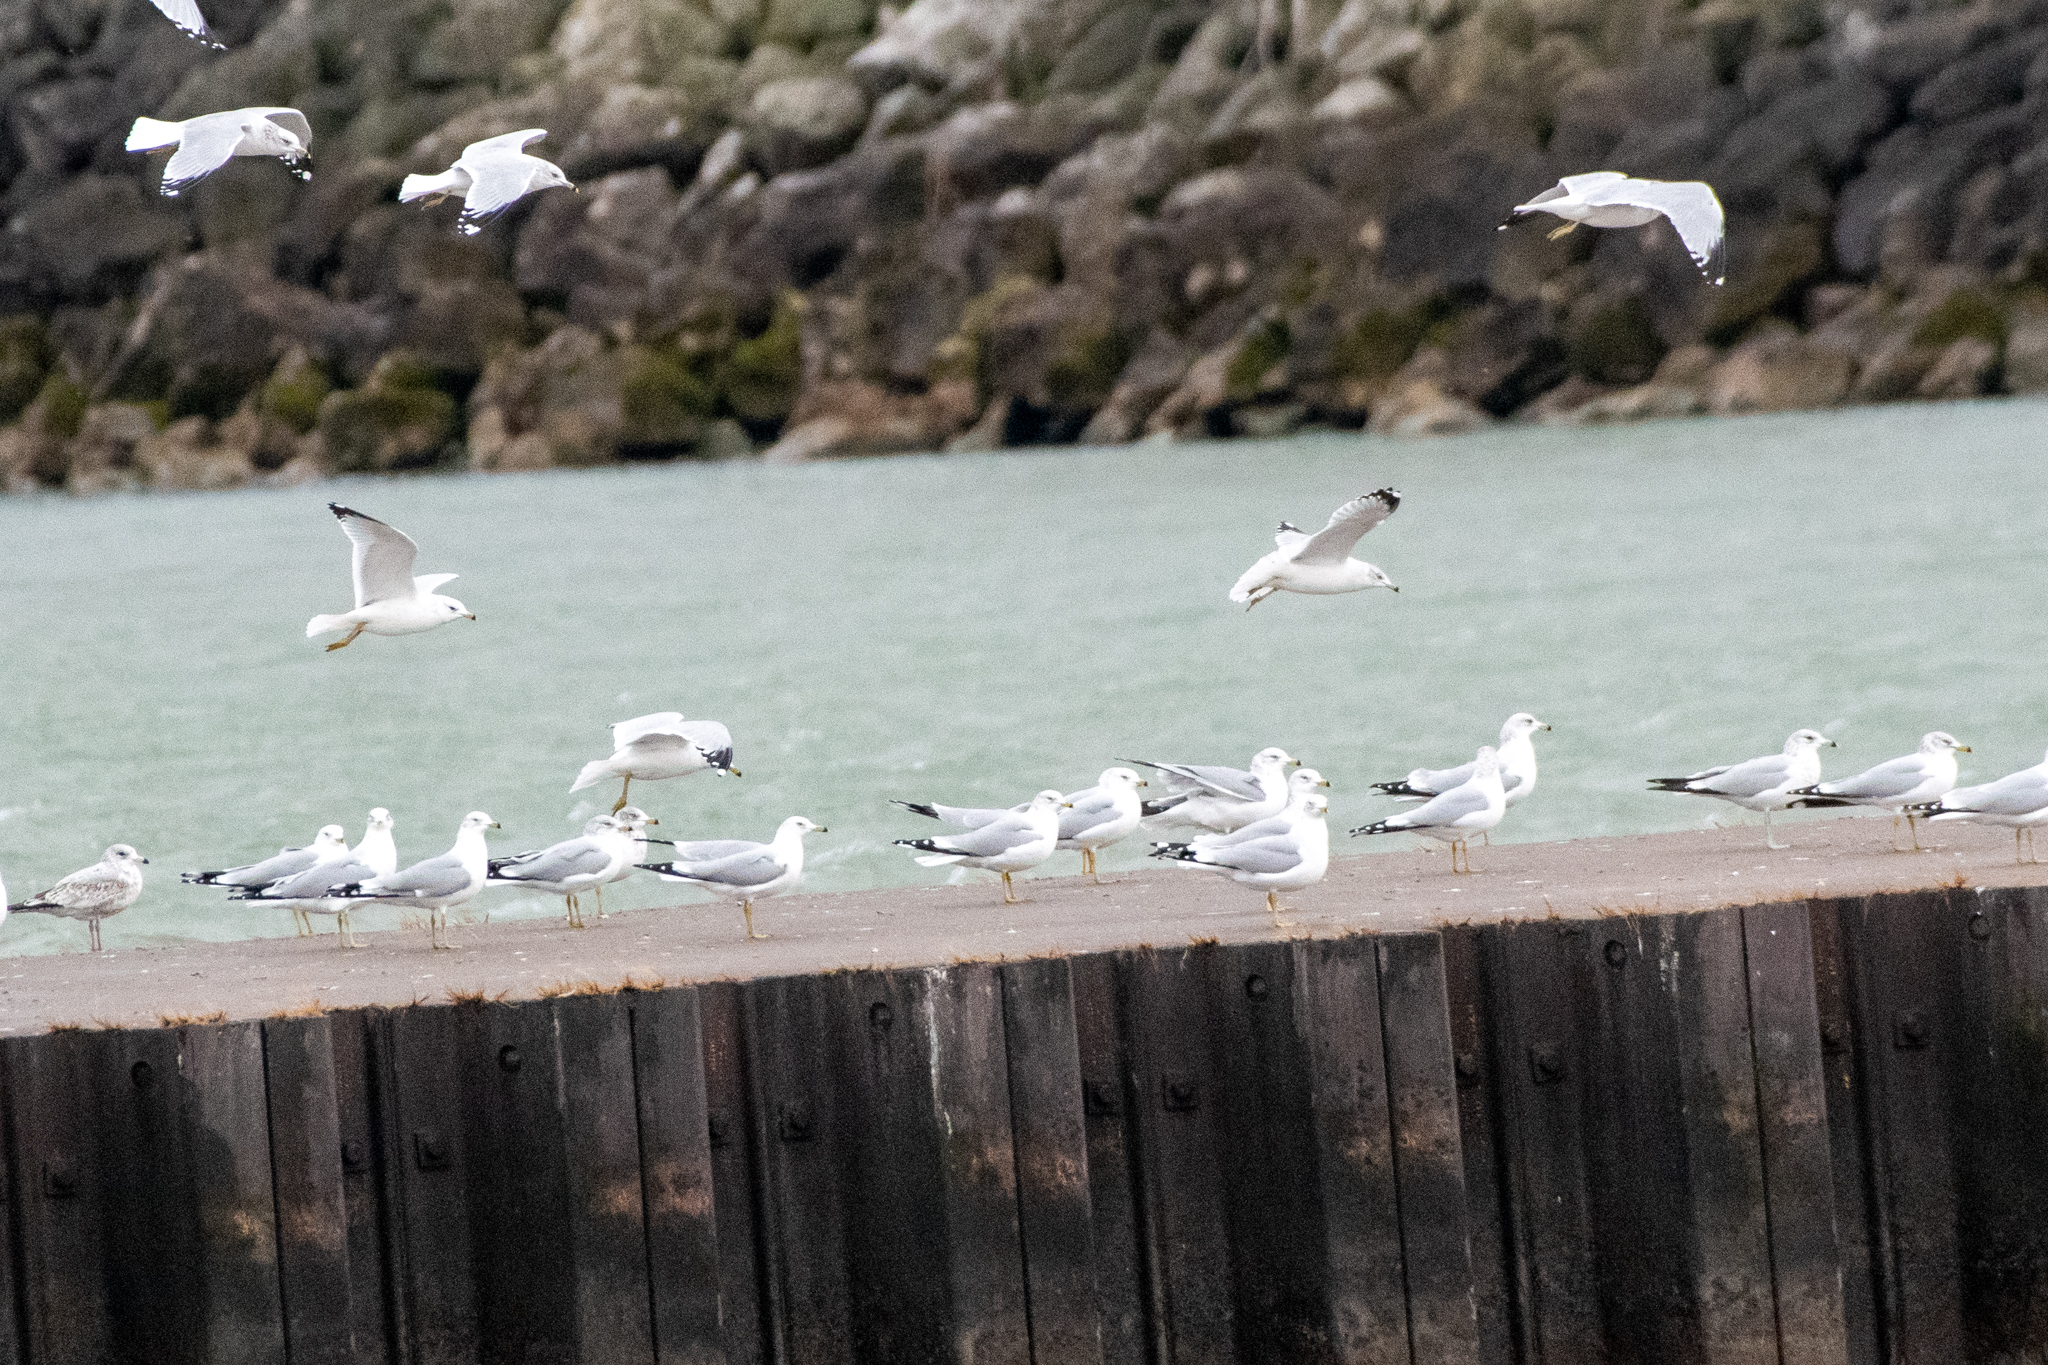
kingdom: Animalia
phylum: Chordata
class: Aves
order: Charadriiformes
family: Laridae
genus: Larus
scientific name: Larus delawarensis
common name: Ring-billed gull
